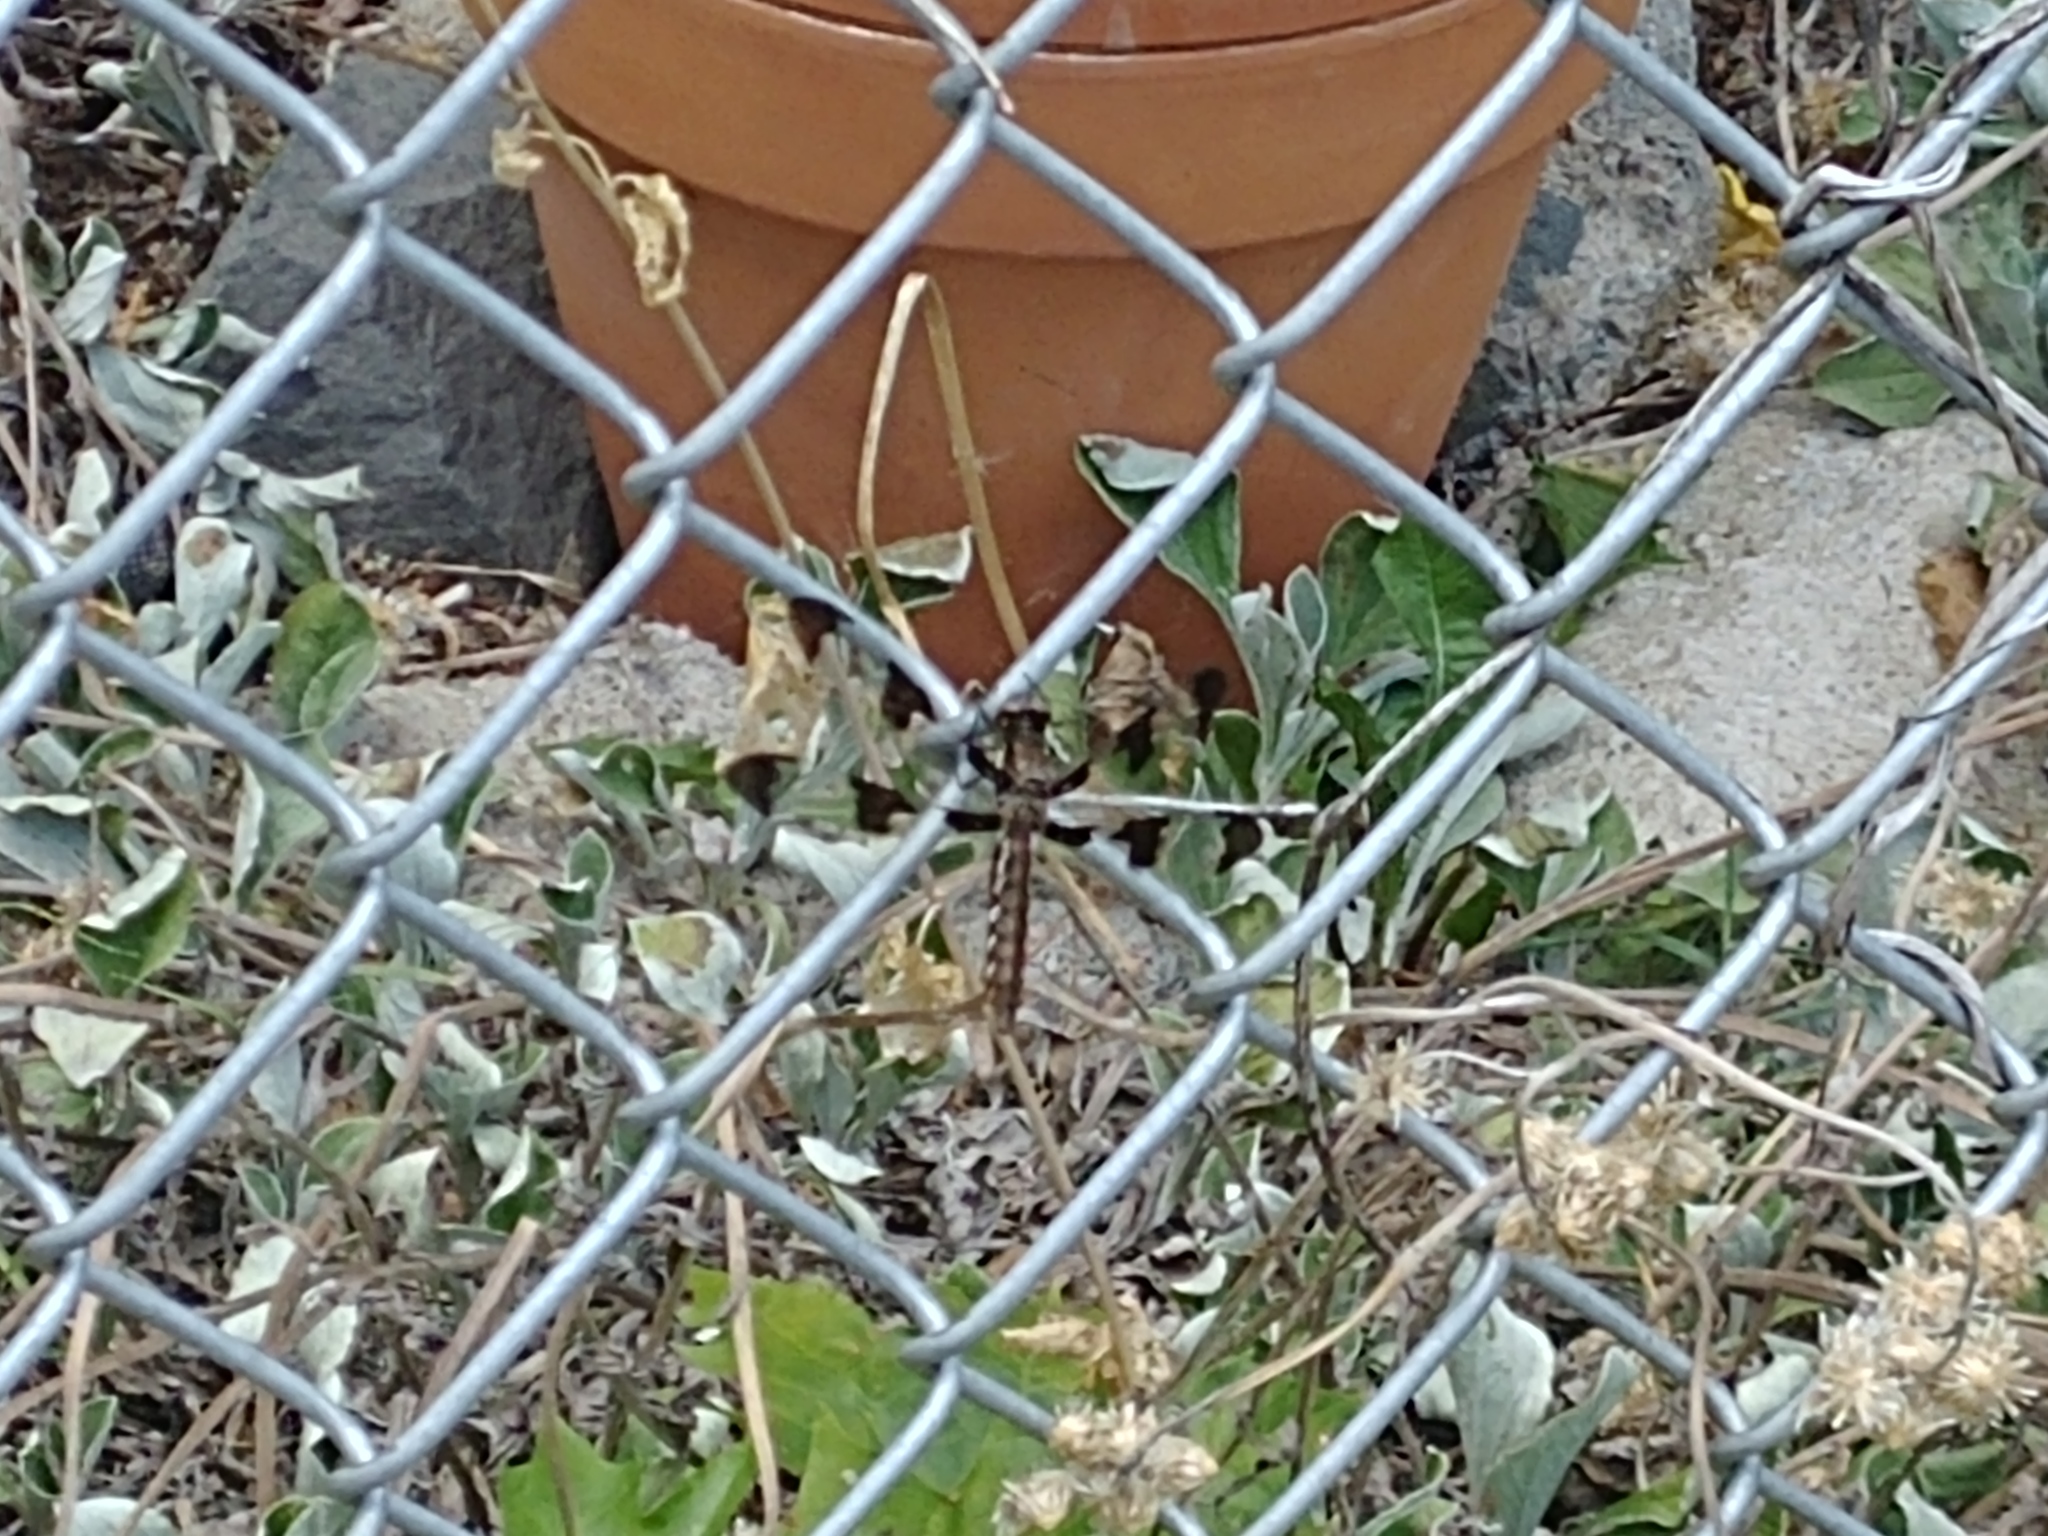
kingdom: Animalia
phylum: Arthropoda
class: Insecta
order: Odonata
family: Libellulidae
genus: Plathemis
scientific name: Plathemis lydia
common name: Common whitetail
